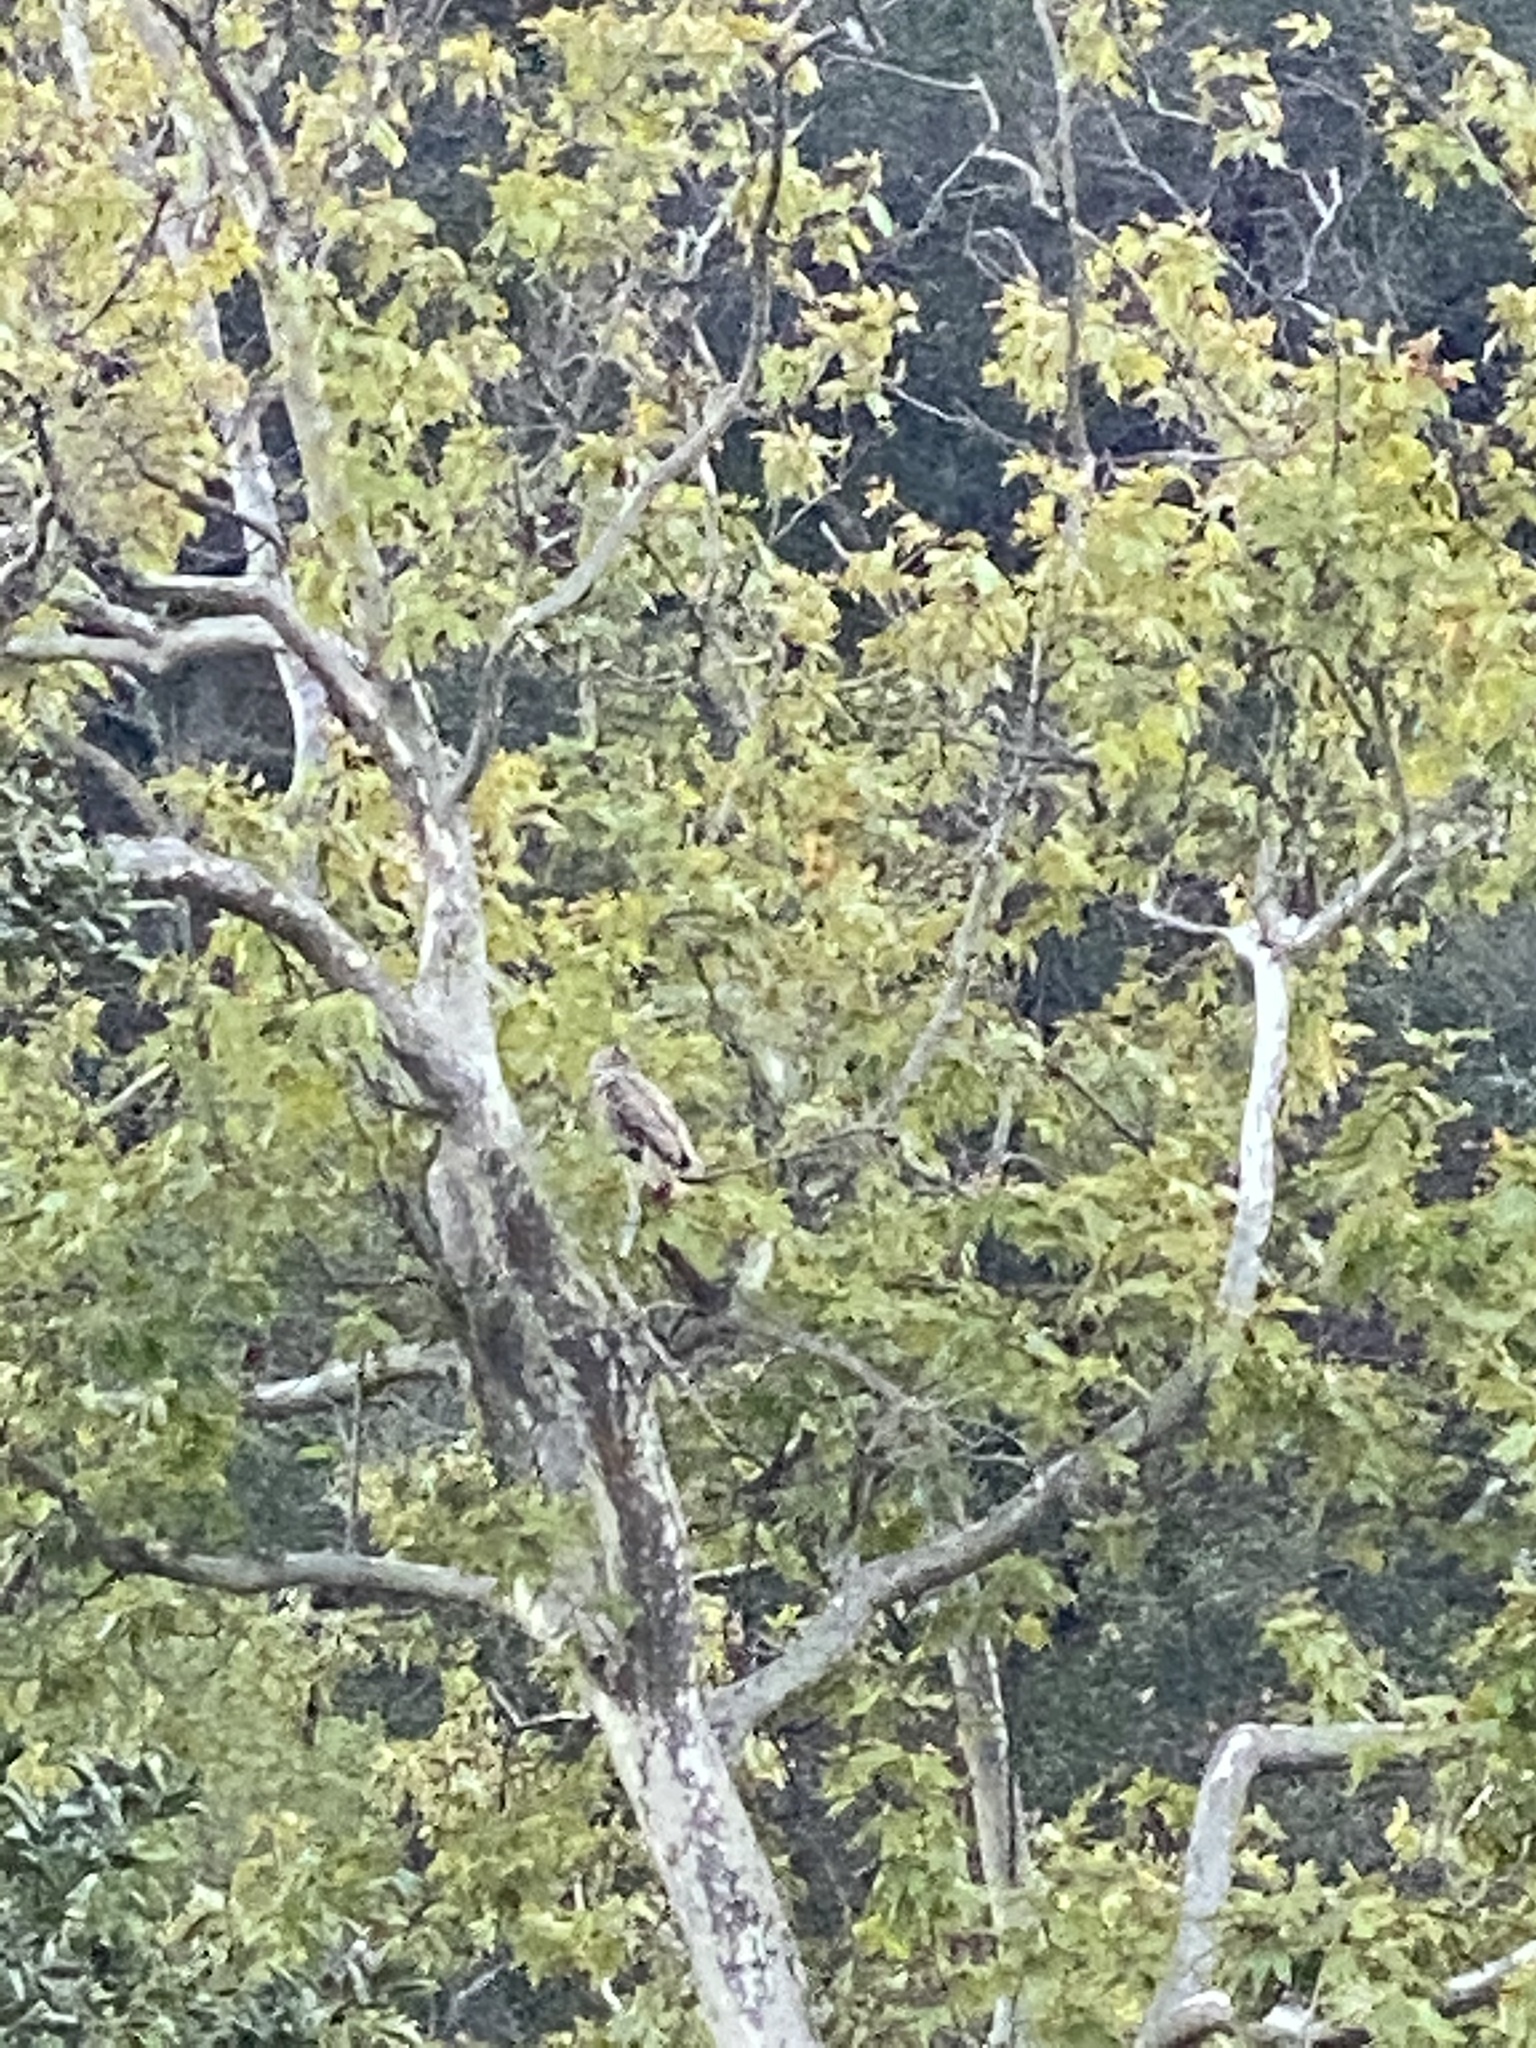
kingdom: Animalia
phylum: Chordata
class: Aves
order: Strigiformes
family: Strigidae
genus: Bubo
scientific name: Bubo virginianus
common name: Great horned owl
